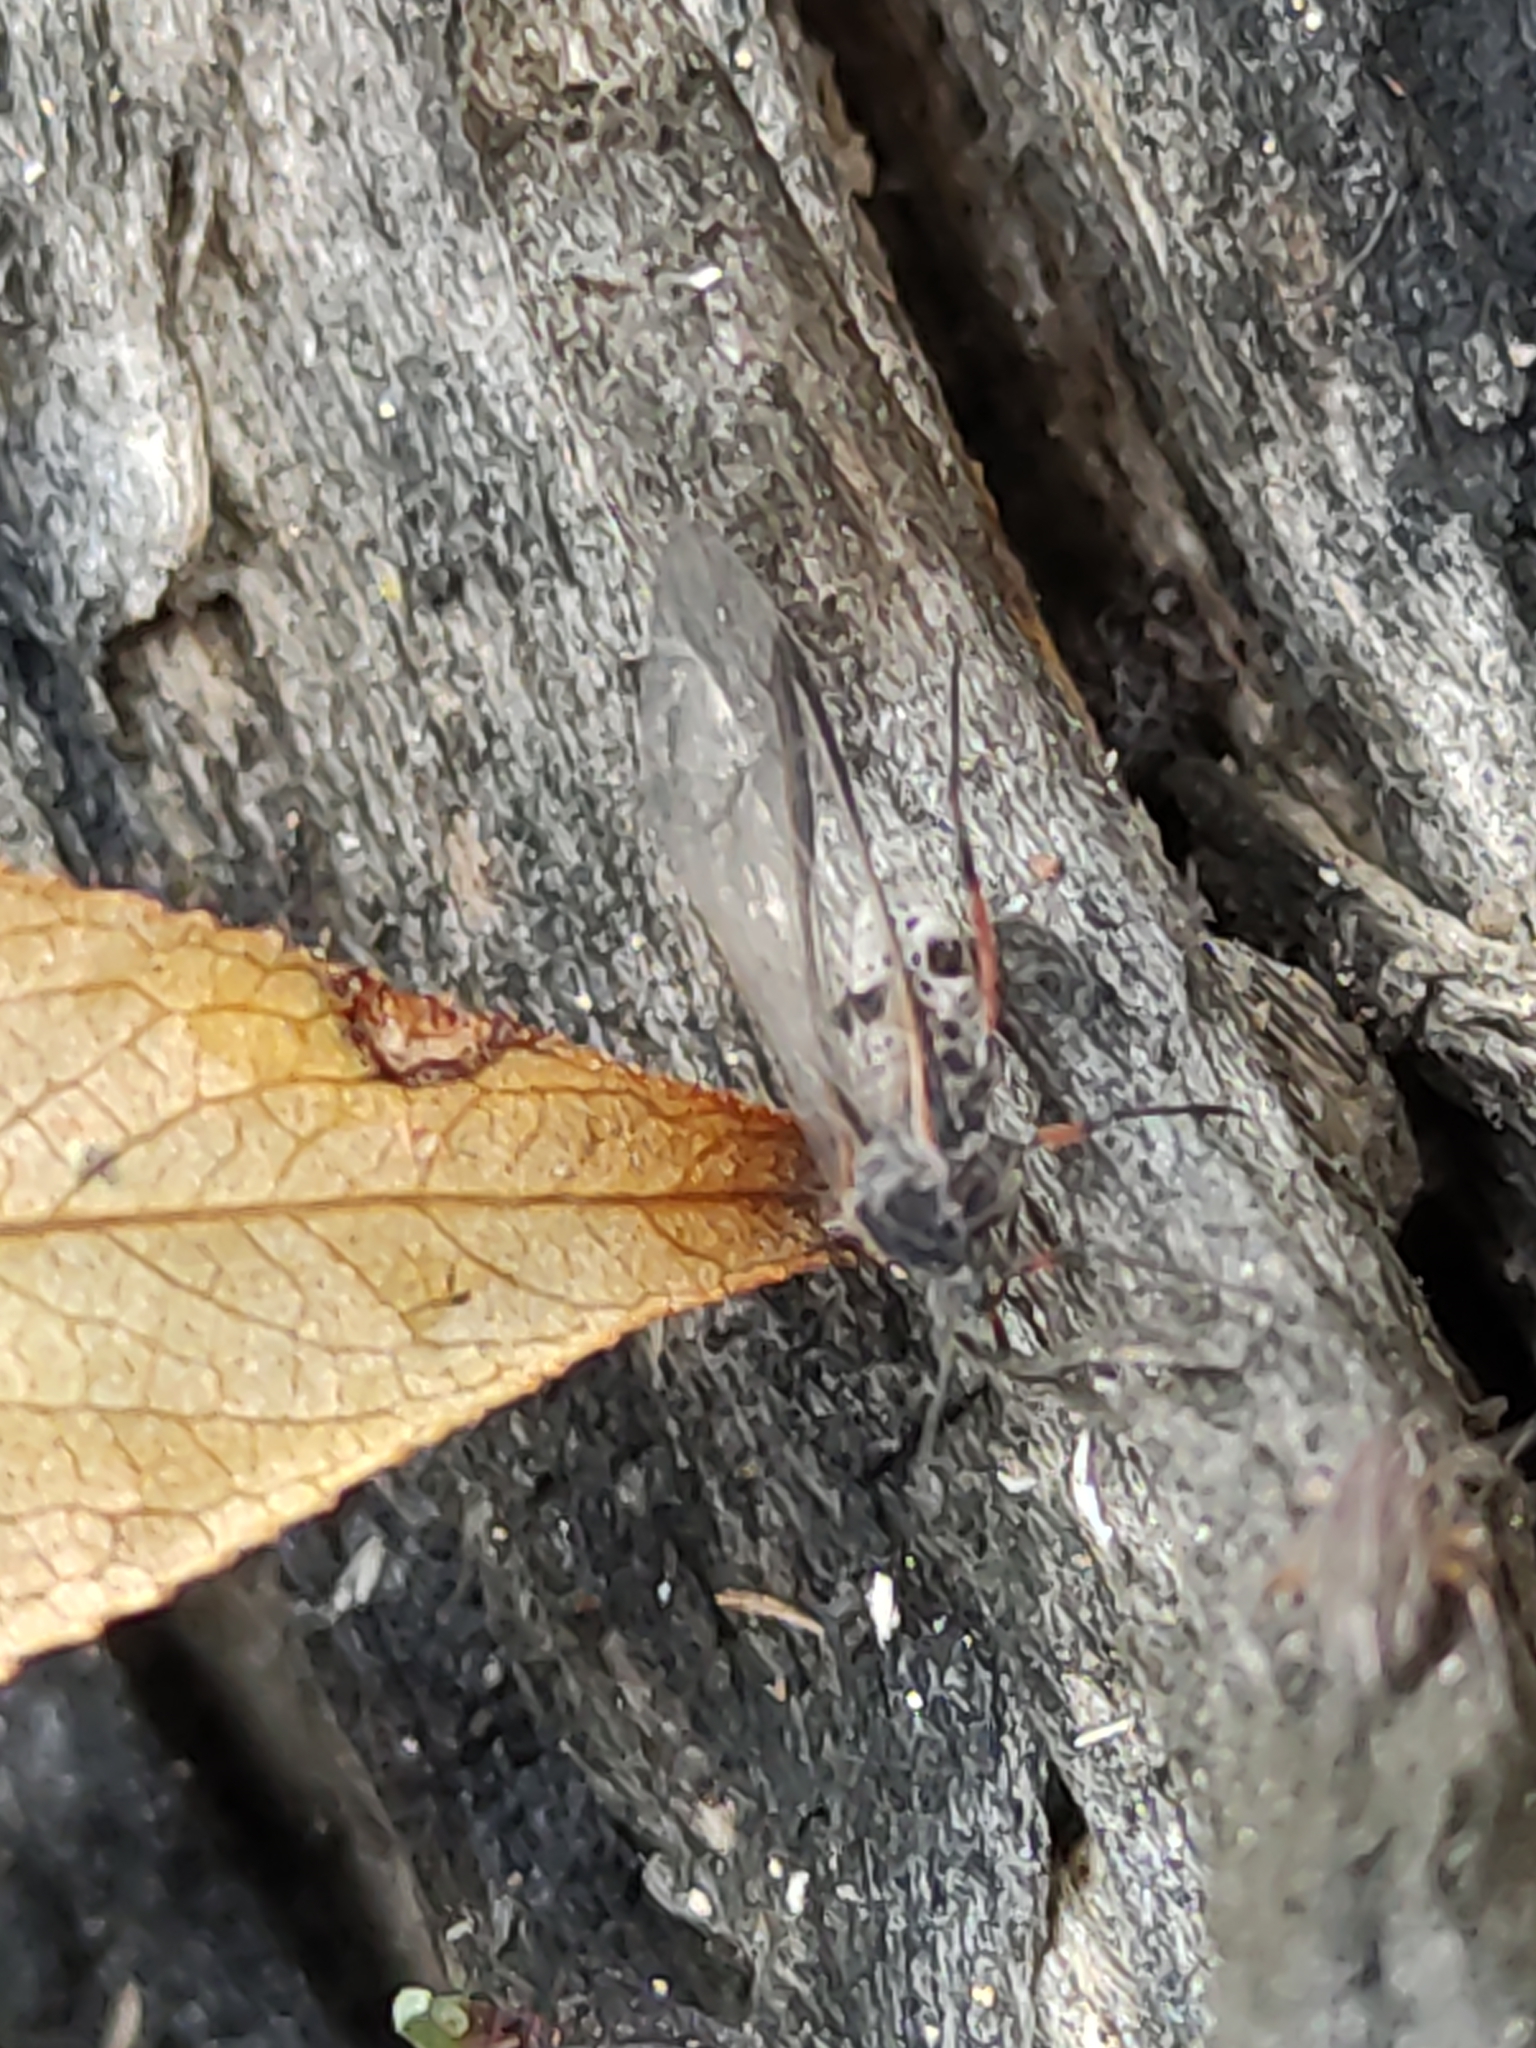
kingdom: Animalia
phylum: Arthropoda
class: Insecta
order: Hemiptera
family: Aphididae
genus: Tuberolachnus
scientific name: Tuberolachnus salignus
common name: Giant willow aphid
